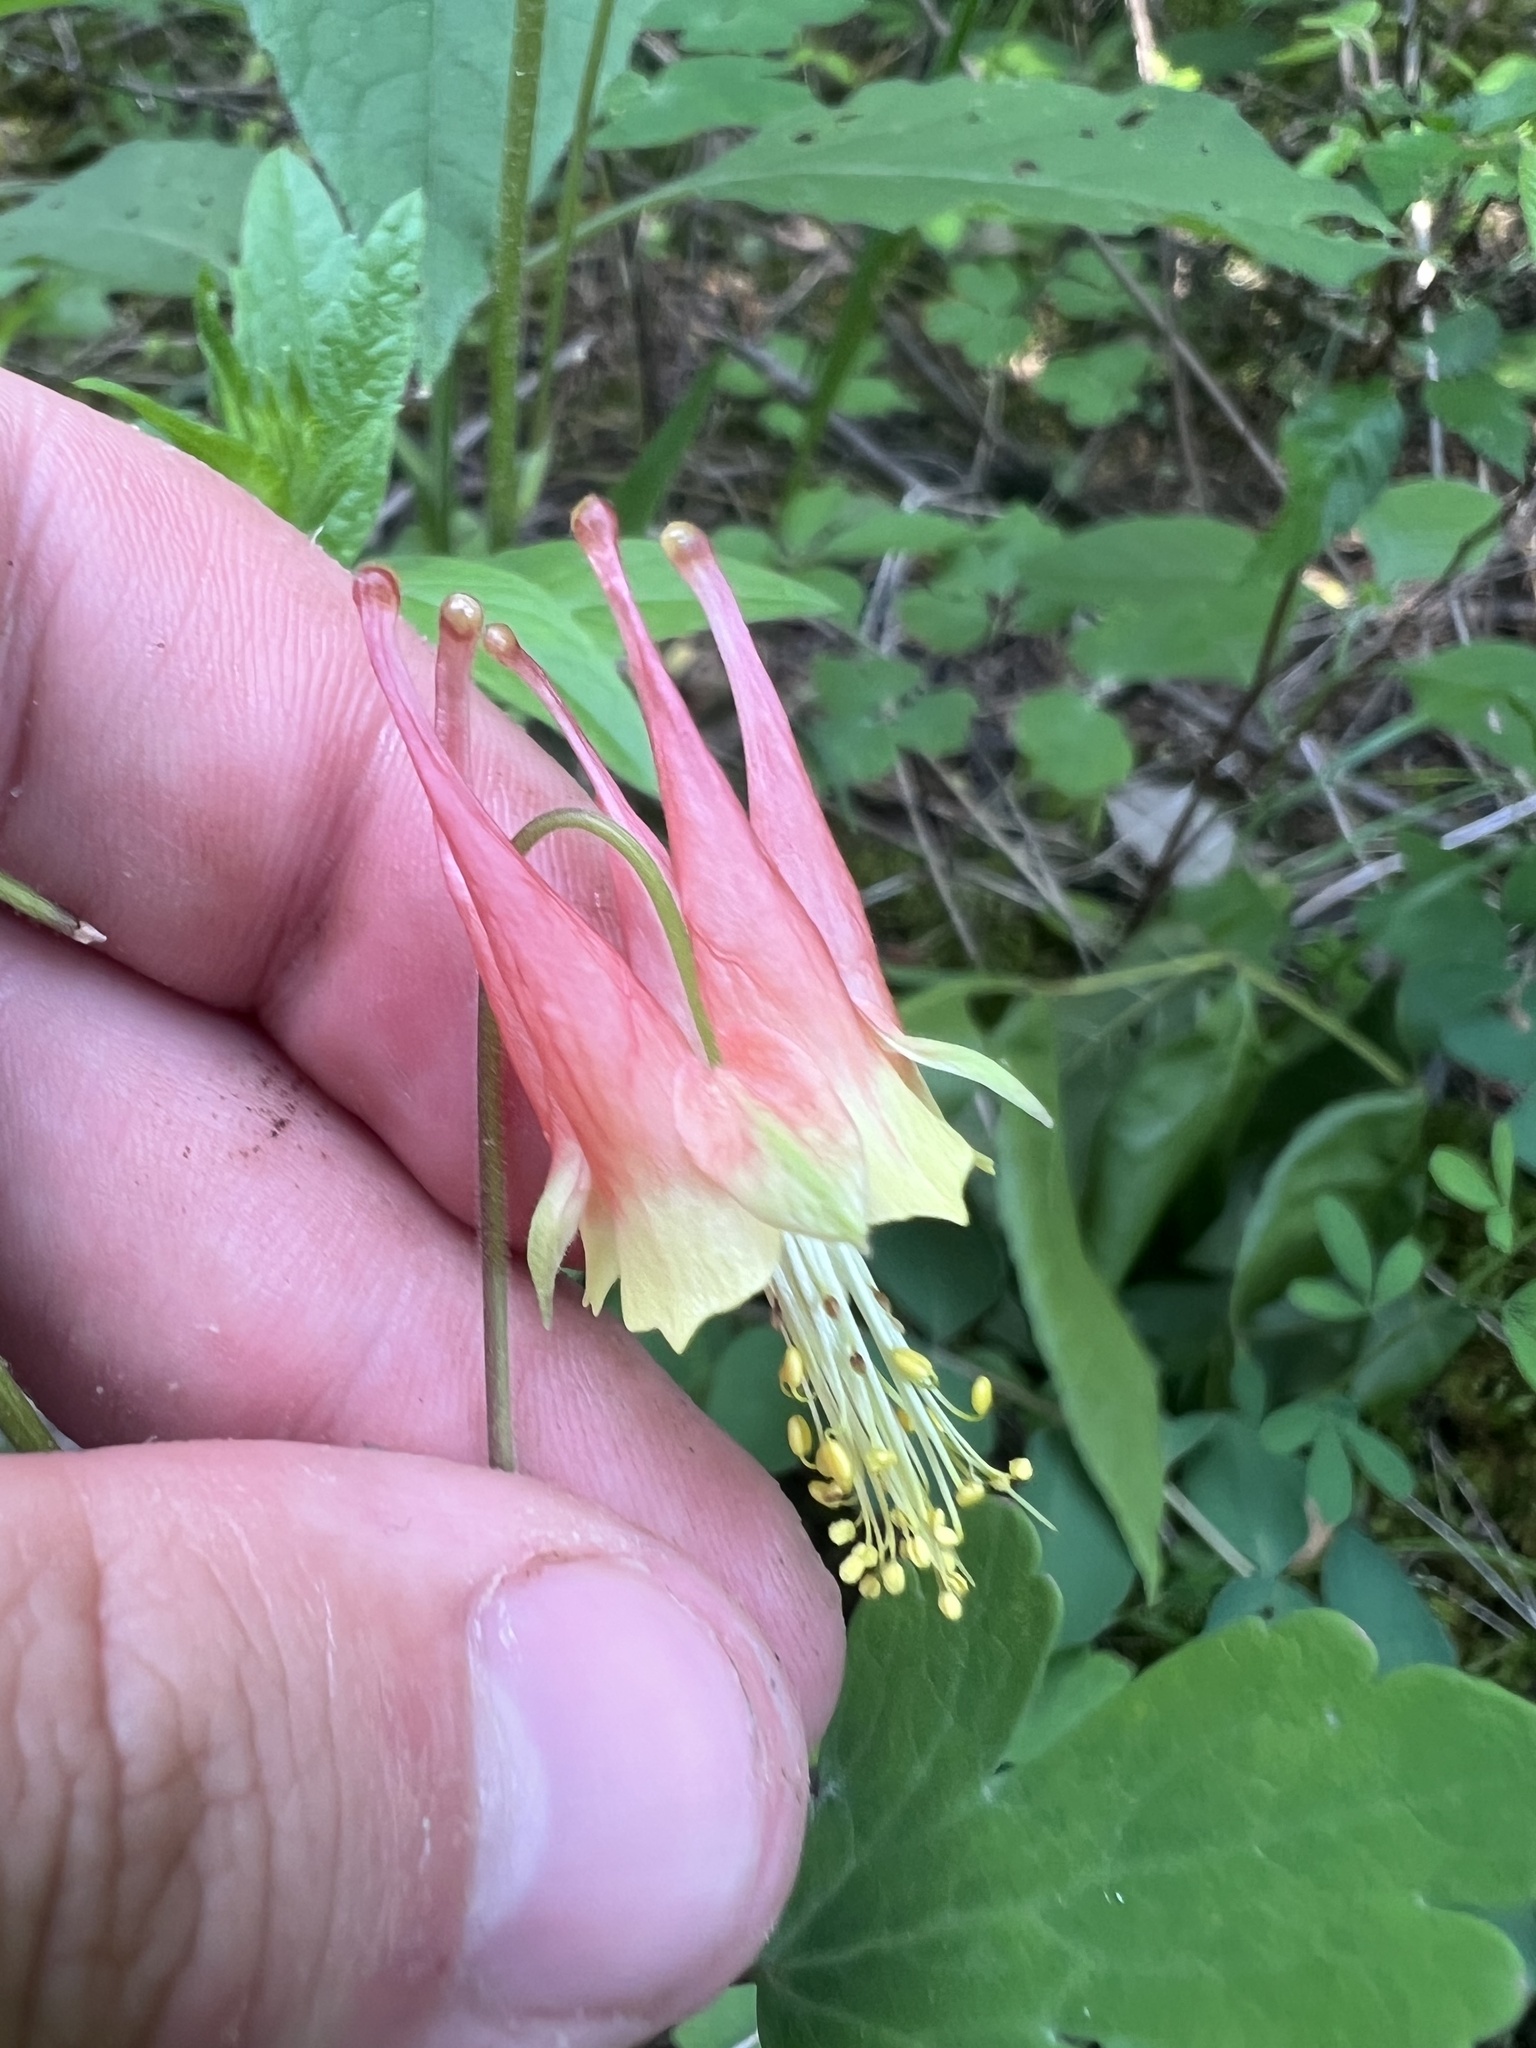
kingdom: Plantae
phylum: Tracheophyta
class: Magnoliopsida
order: Ranunculales
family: Ranunculaceae
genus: Aquilegia
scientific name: Aquilegia canadensis
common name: American columbine
